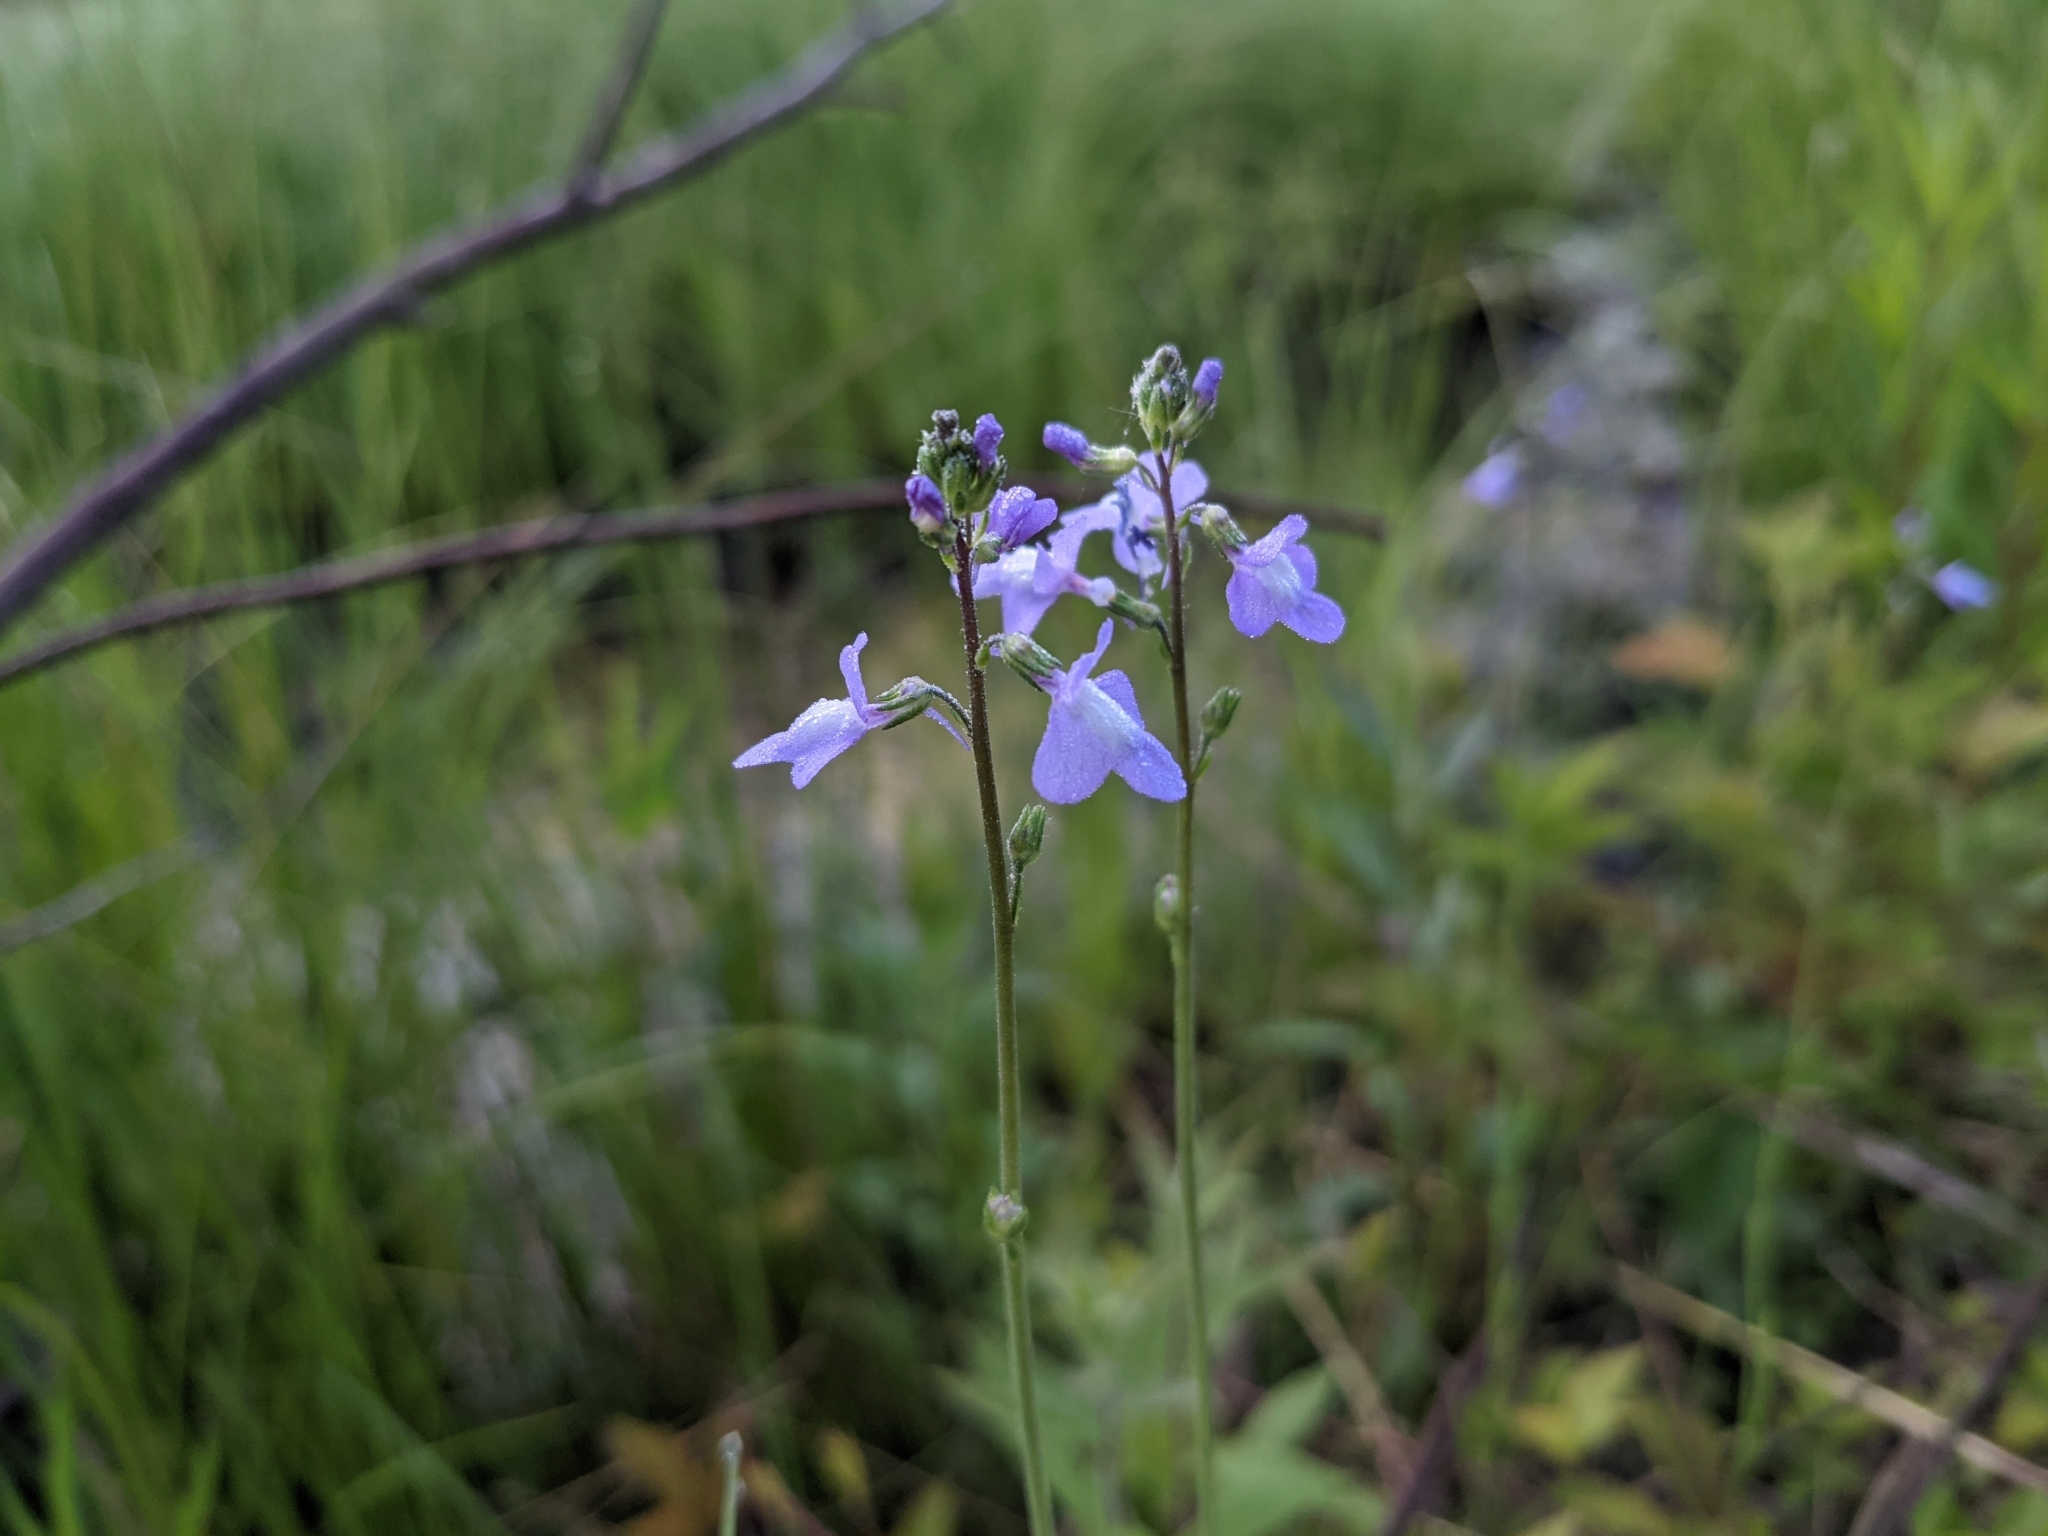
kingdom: Plantae
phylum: Tracheophyta
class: Magnoliopsida
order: Lamiales
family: Plantaginaceae
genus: Nuttallanthus
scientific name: Nuttallanthus canadensis
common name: Blue toadflax
